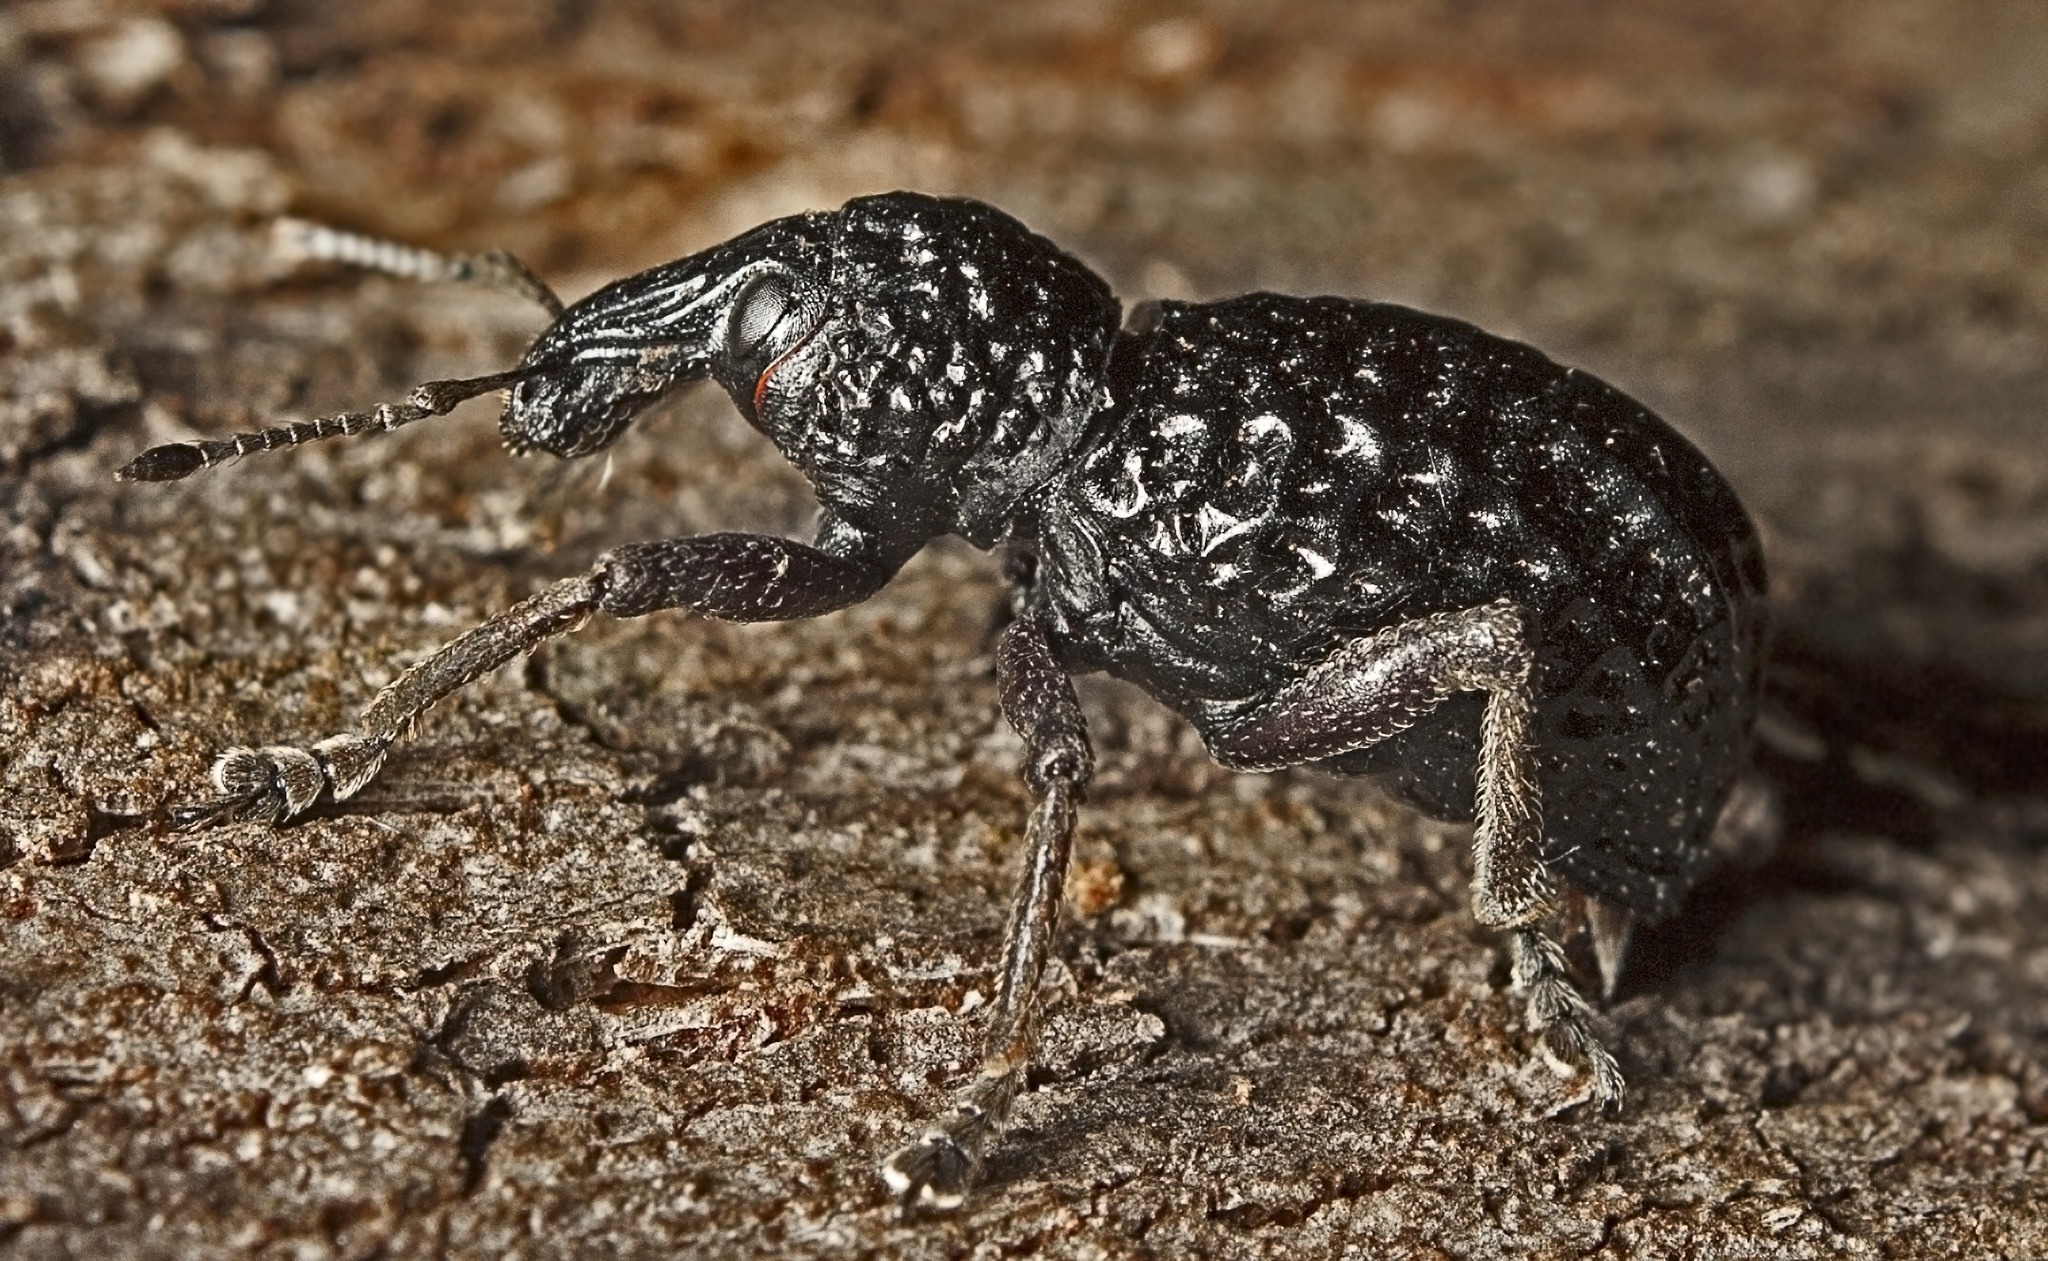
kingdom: Animalia
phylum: Arthropoda
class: Insecta
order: Coleoptera
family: Curculionidae
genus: Zymaus
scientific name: Zymaus angustus
